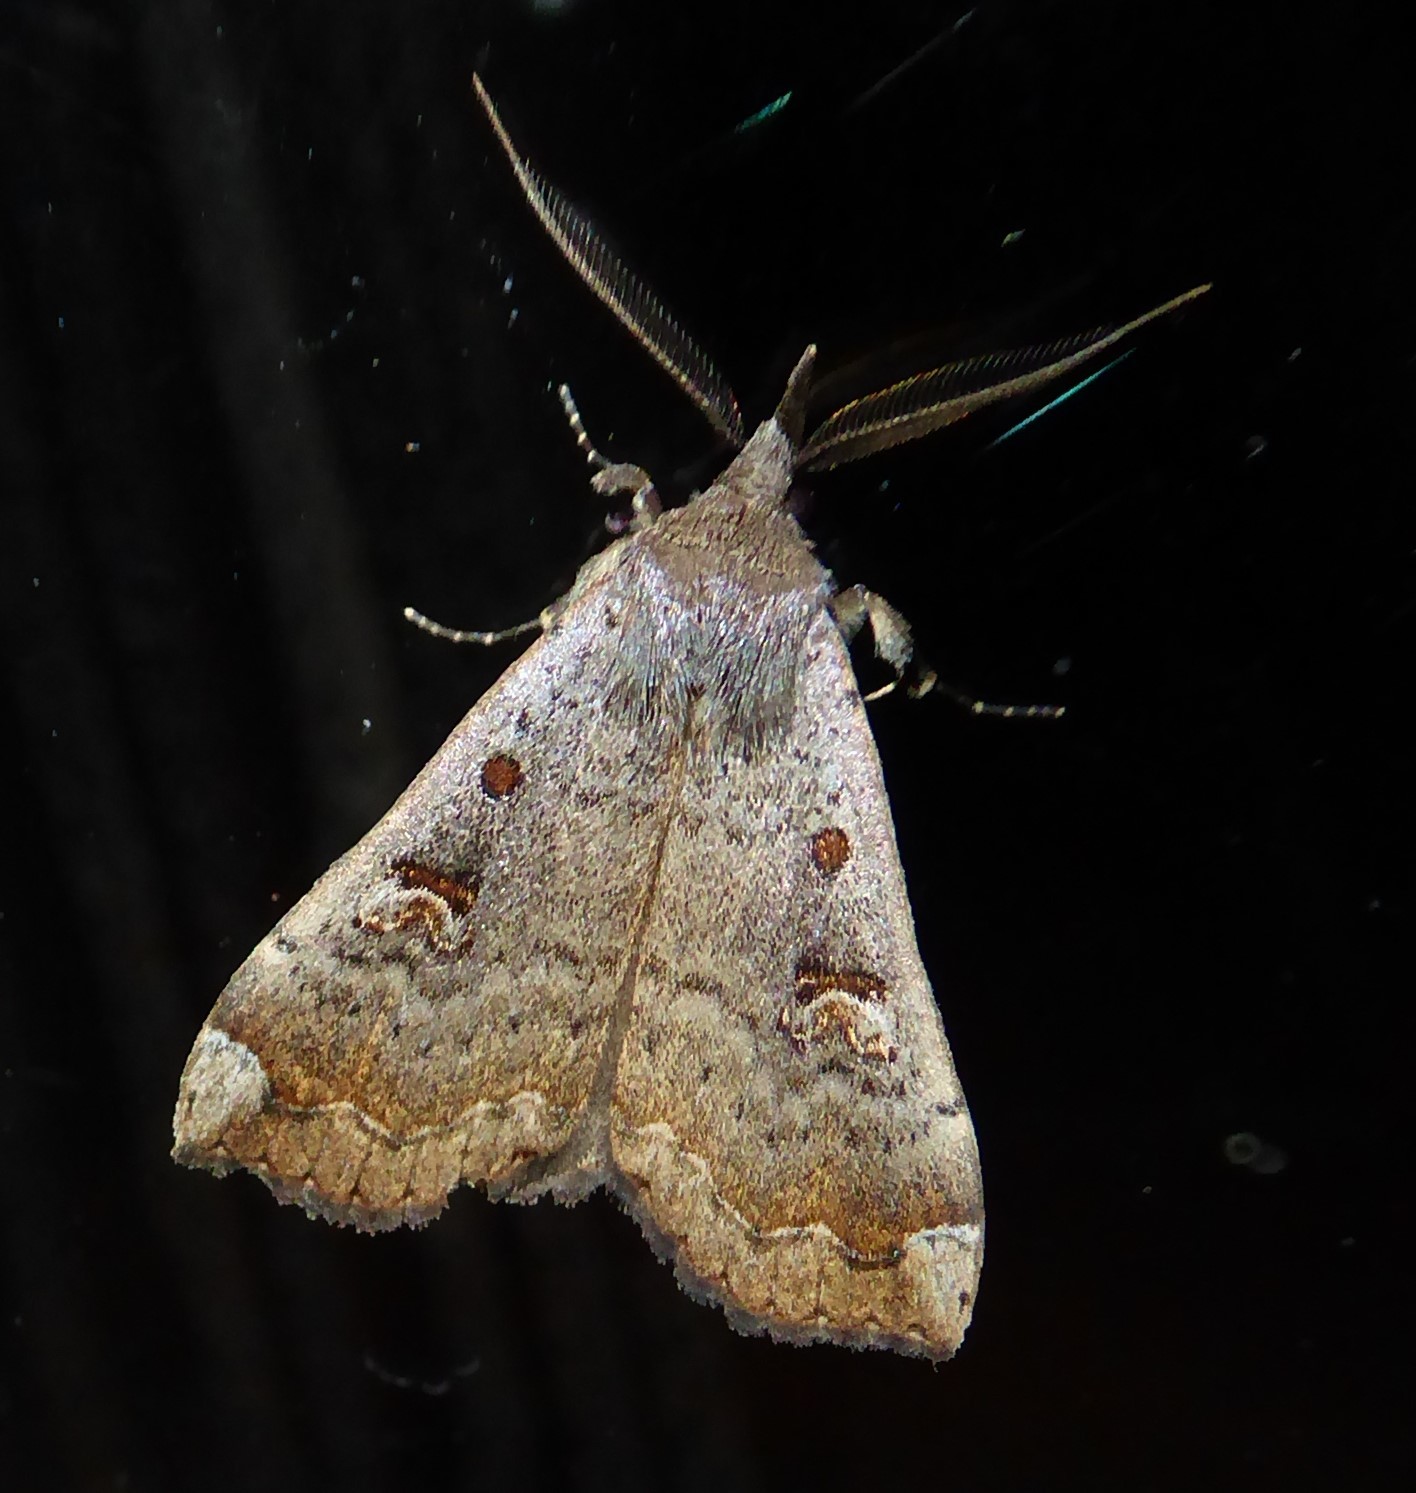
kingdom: Animalia
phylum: Arthropoda
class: Insecta
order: Lepidoptera
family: Erebidae
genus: Rhapsa
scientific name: Rhapsa scotosialis
